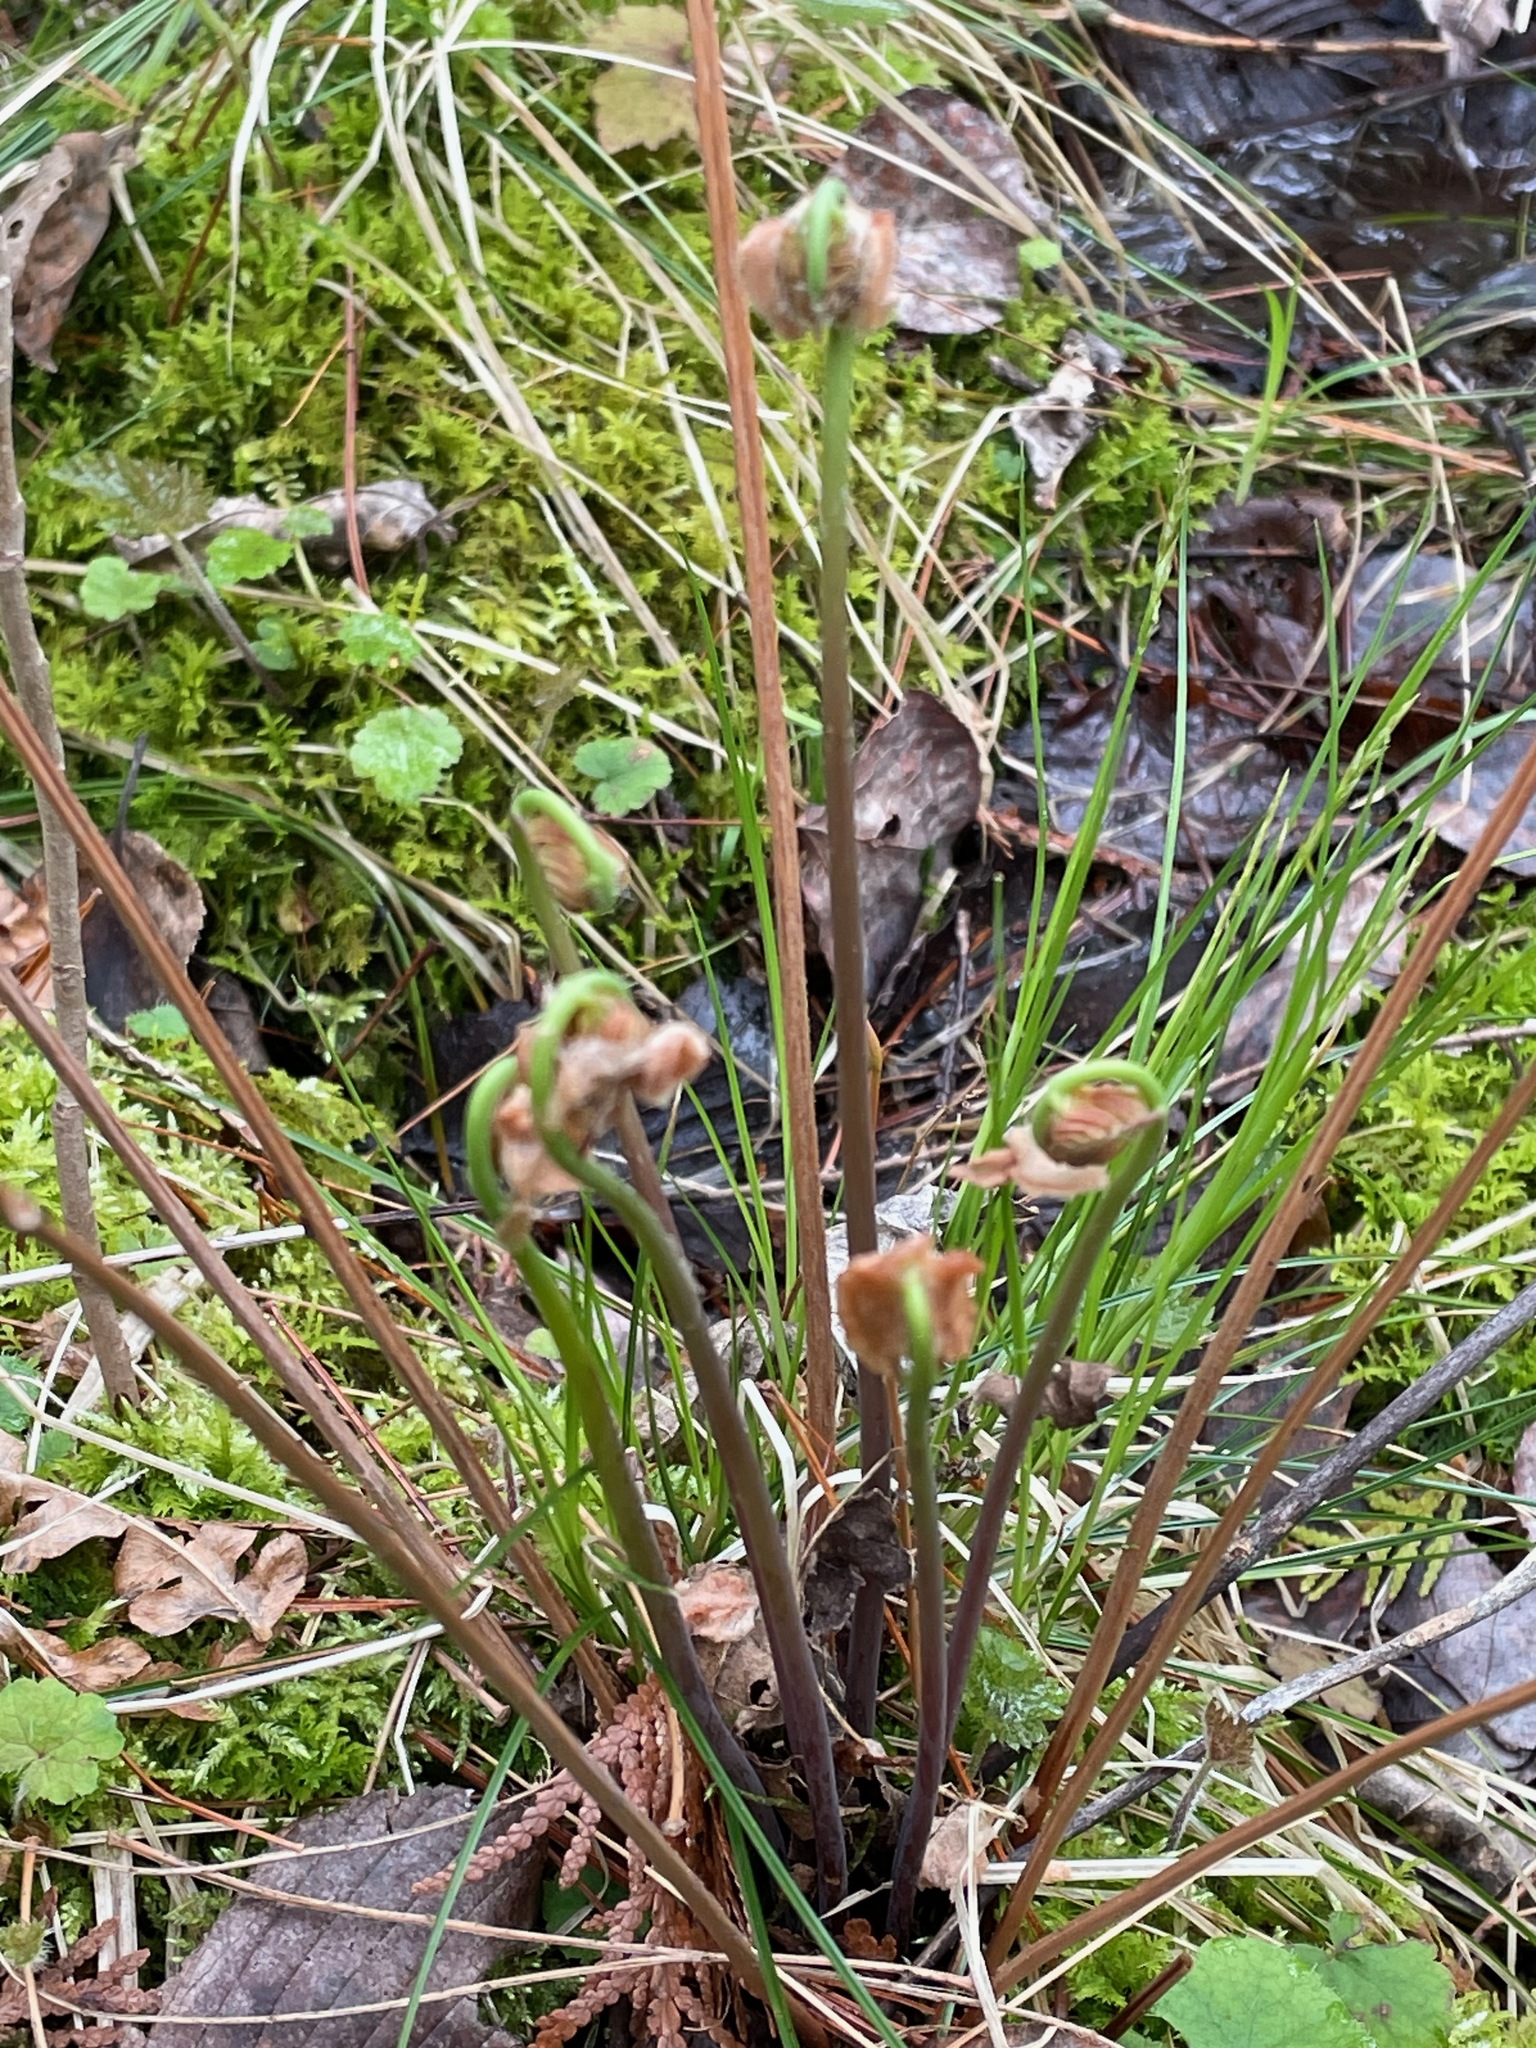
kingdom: Plantae
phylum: Tracheophyta
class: Polypodiopsida
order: Osmundales
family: Osmundaceae
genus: Osmunda
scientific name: Osmunda spectabilis
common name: American royal fern
